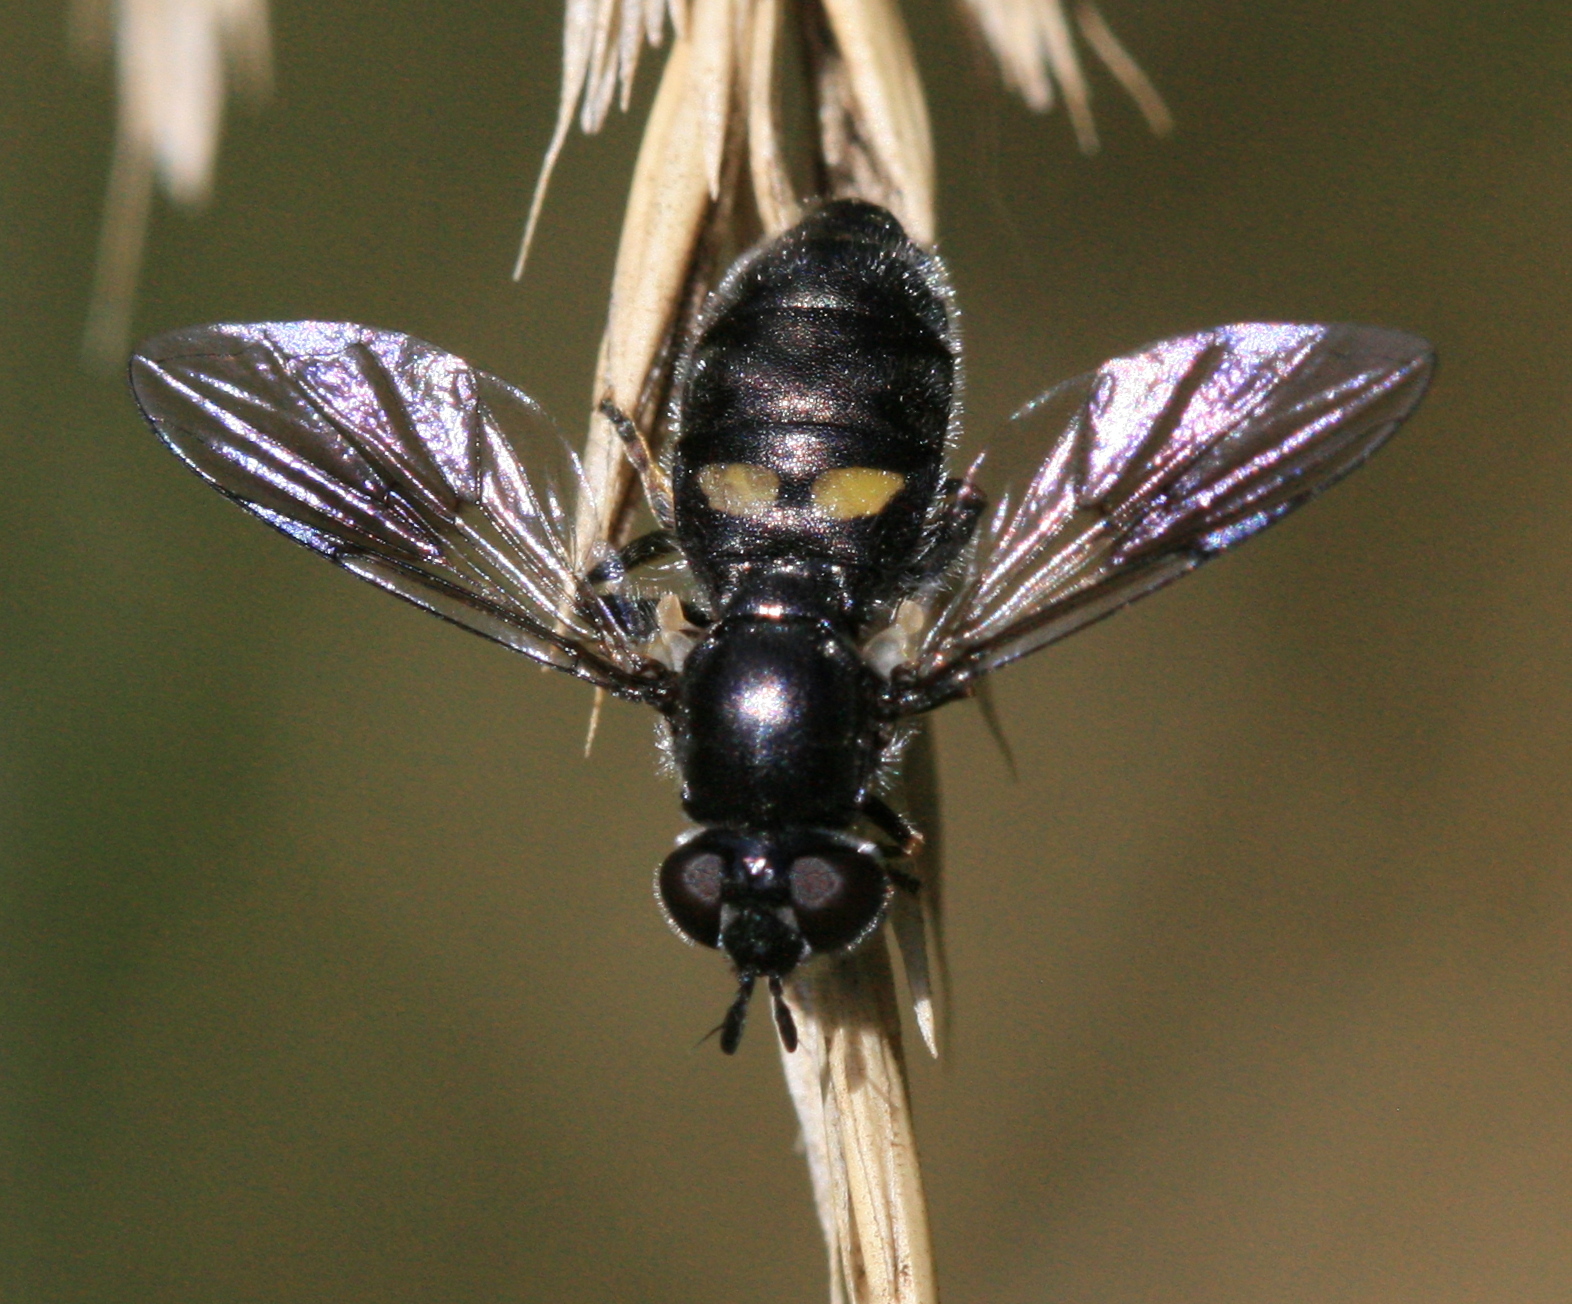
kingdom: Animalia
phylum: Arthropoda
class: Insecta
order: Diptera
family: Syrphidae
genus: Pipiza
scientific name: Pipiza
